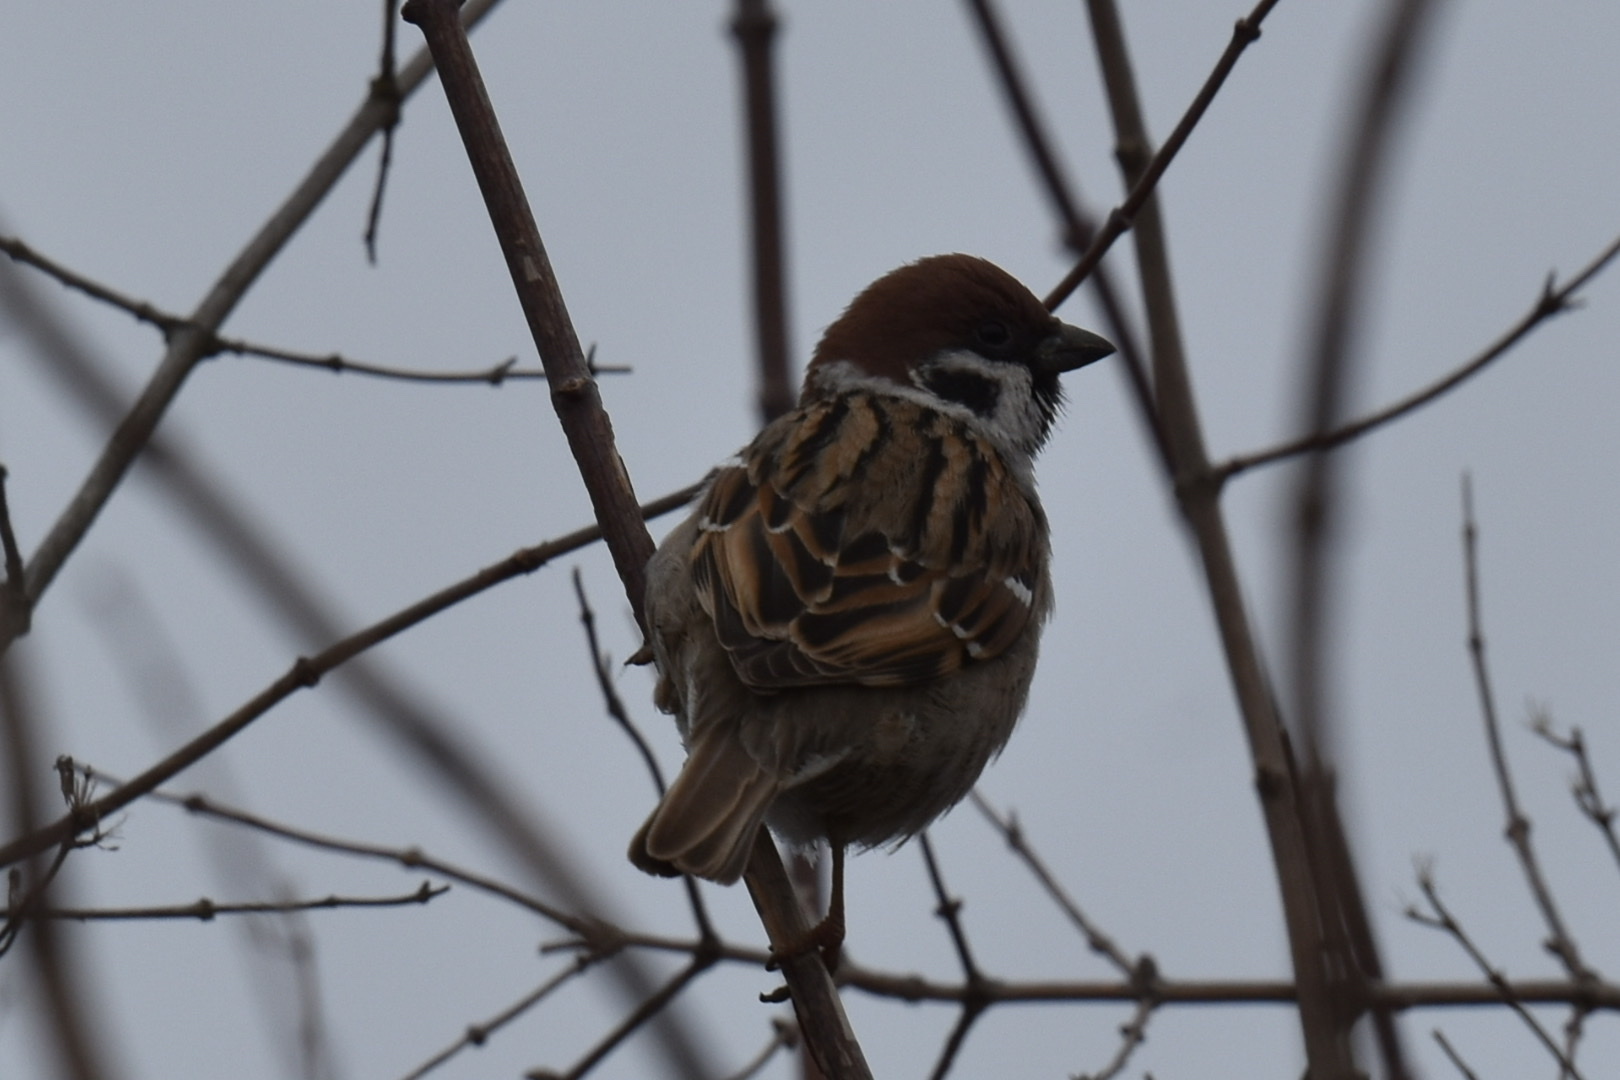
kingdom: Animalia
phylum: Chordata
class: Aves
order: Passeriformes
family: Passeridae
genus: Passer
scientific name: Passer montanus
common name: Eurasian tree sparrow
